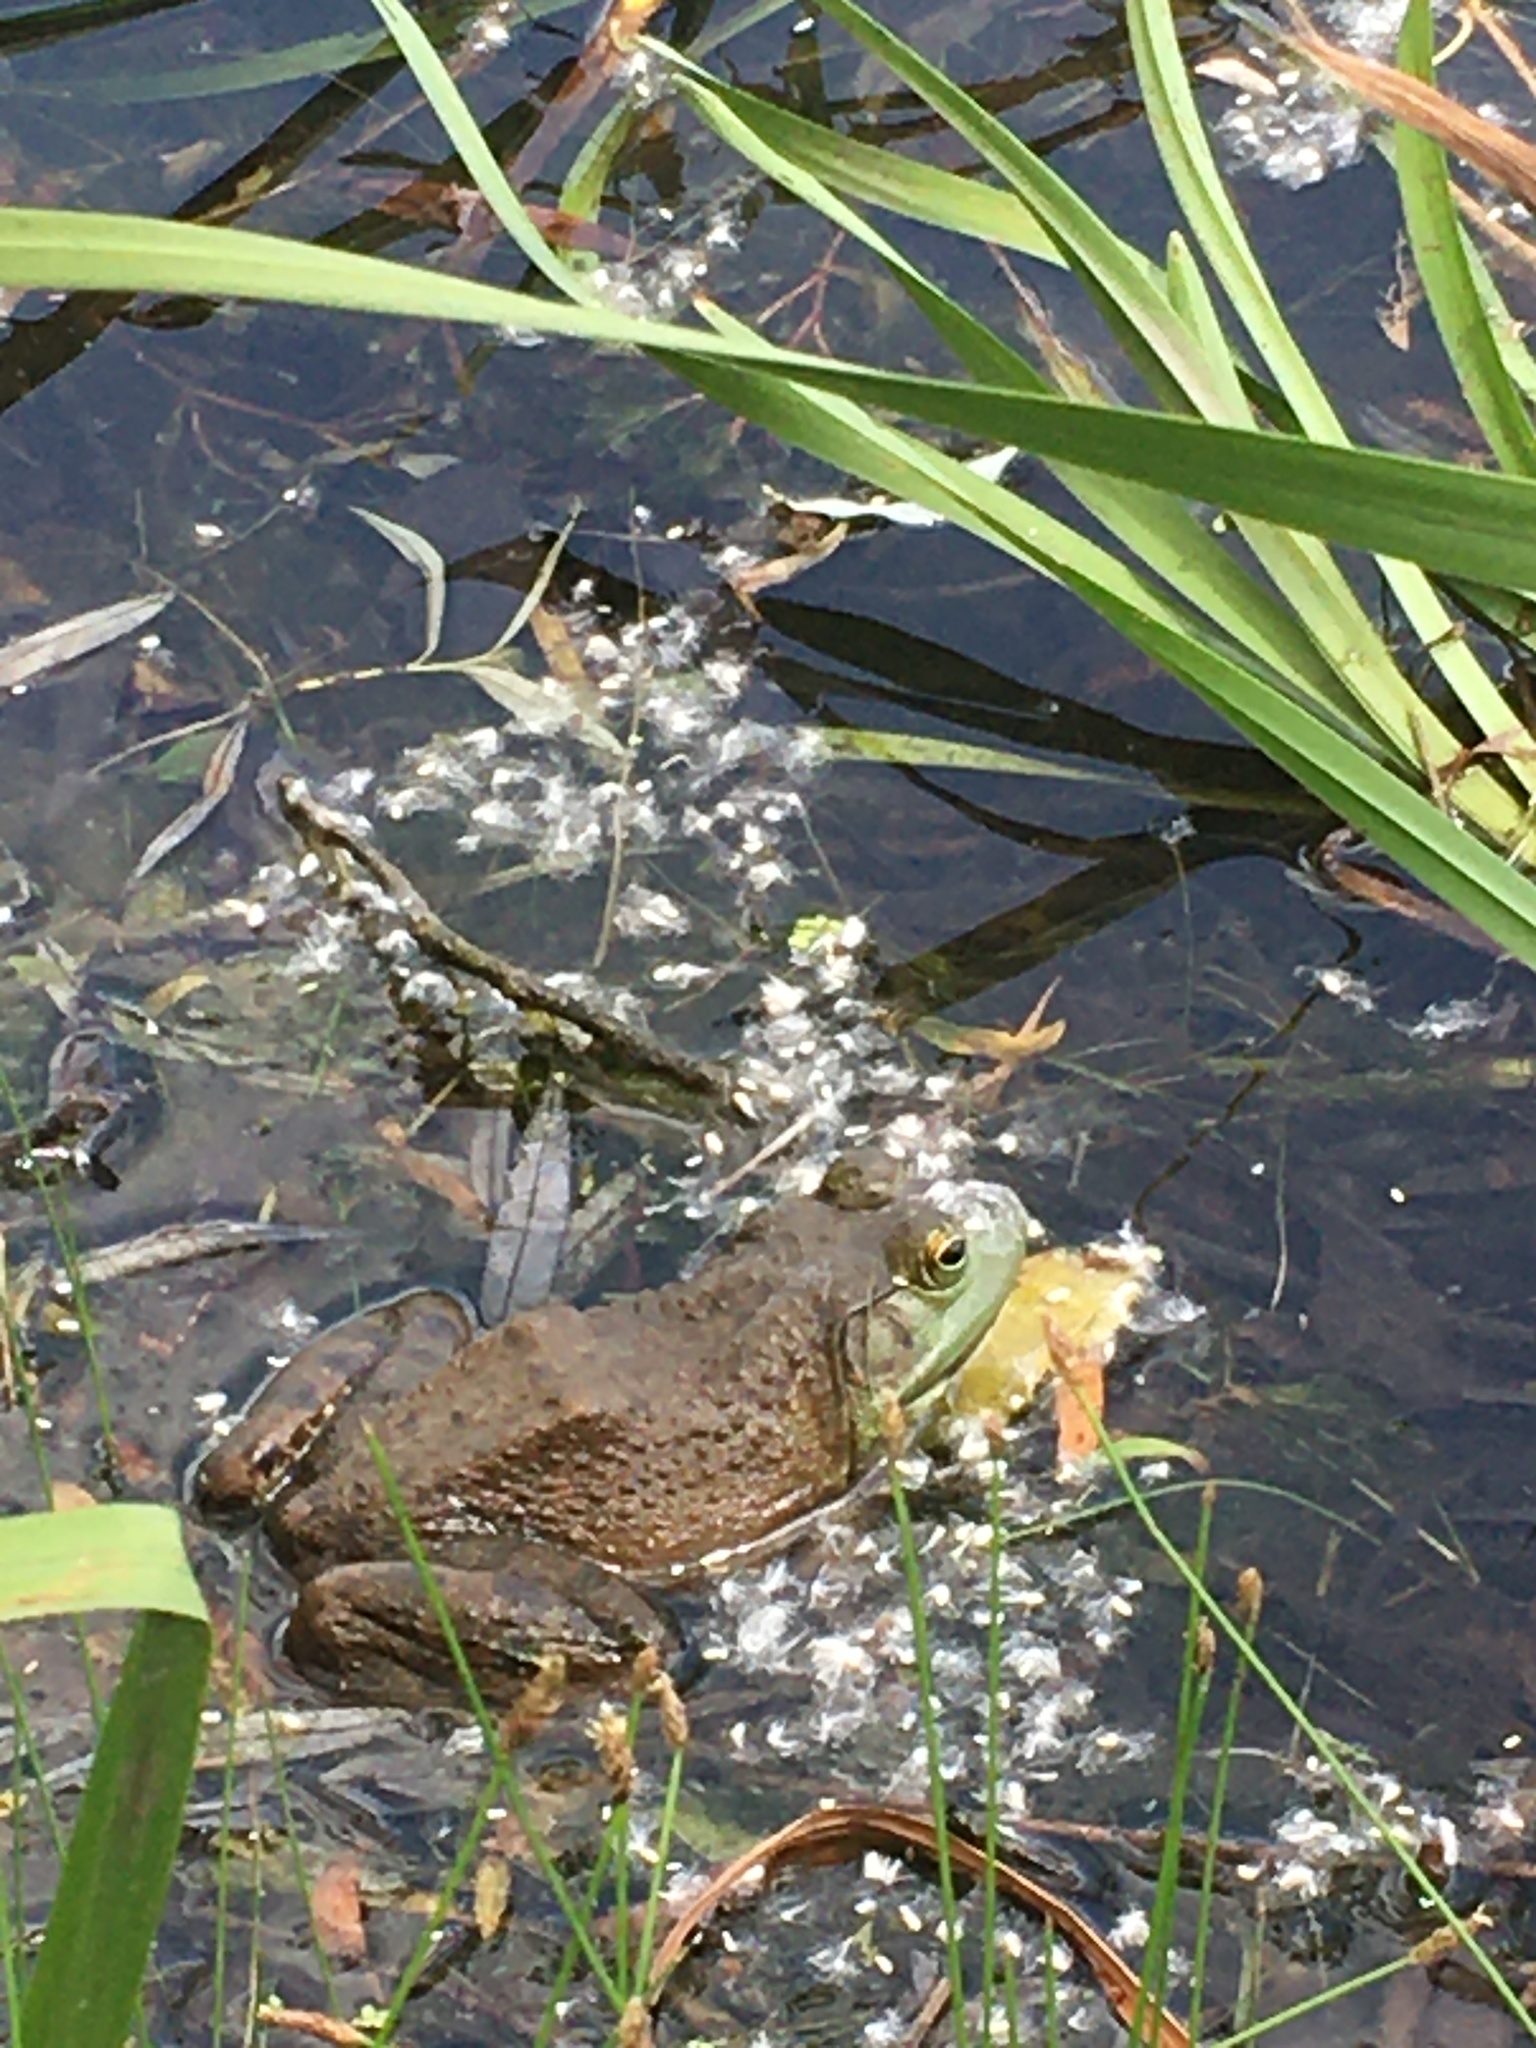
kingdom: Animalia
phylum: Chordata
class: Amphibia
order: Anura
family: Ranidae
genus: Lithobates
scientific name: Lithobates catesbeianus
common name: American bullfrog
